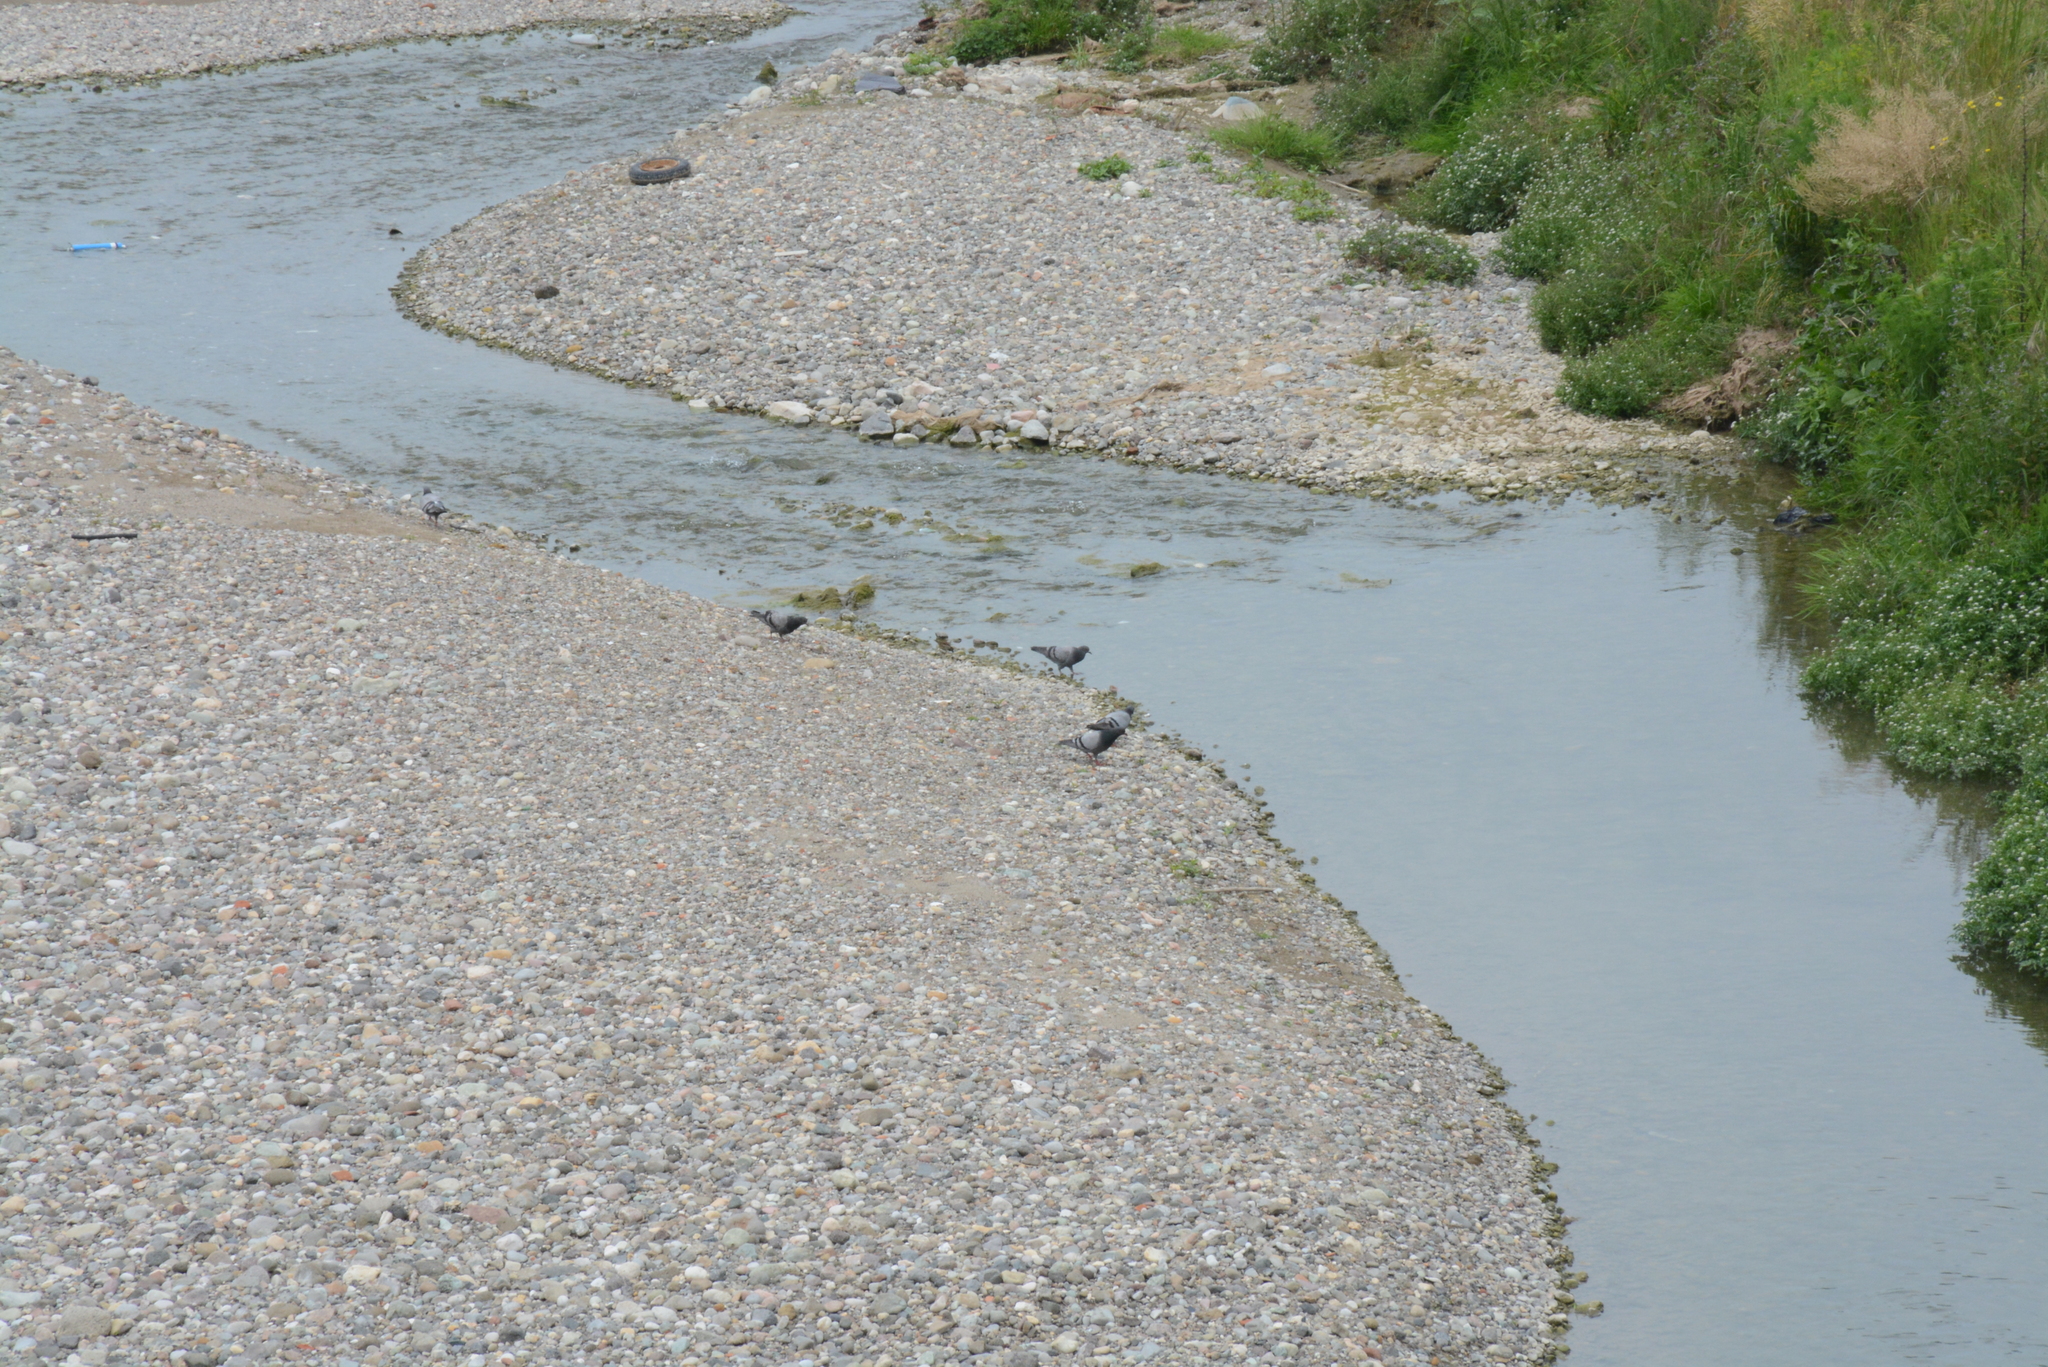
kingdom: Animalia
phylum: Chordata
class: Aves
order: Columbiformes
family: Columbidae
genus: Columba
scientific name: Columba livia
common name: Rock pigeon
